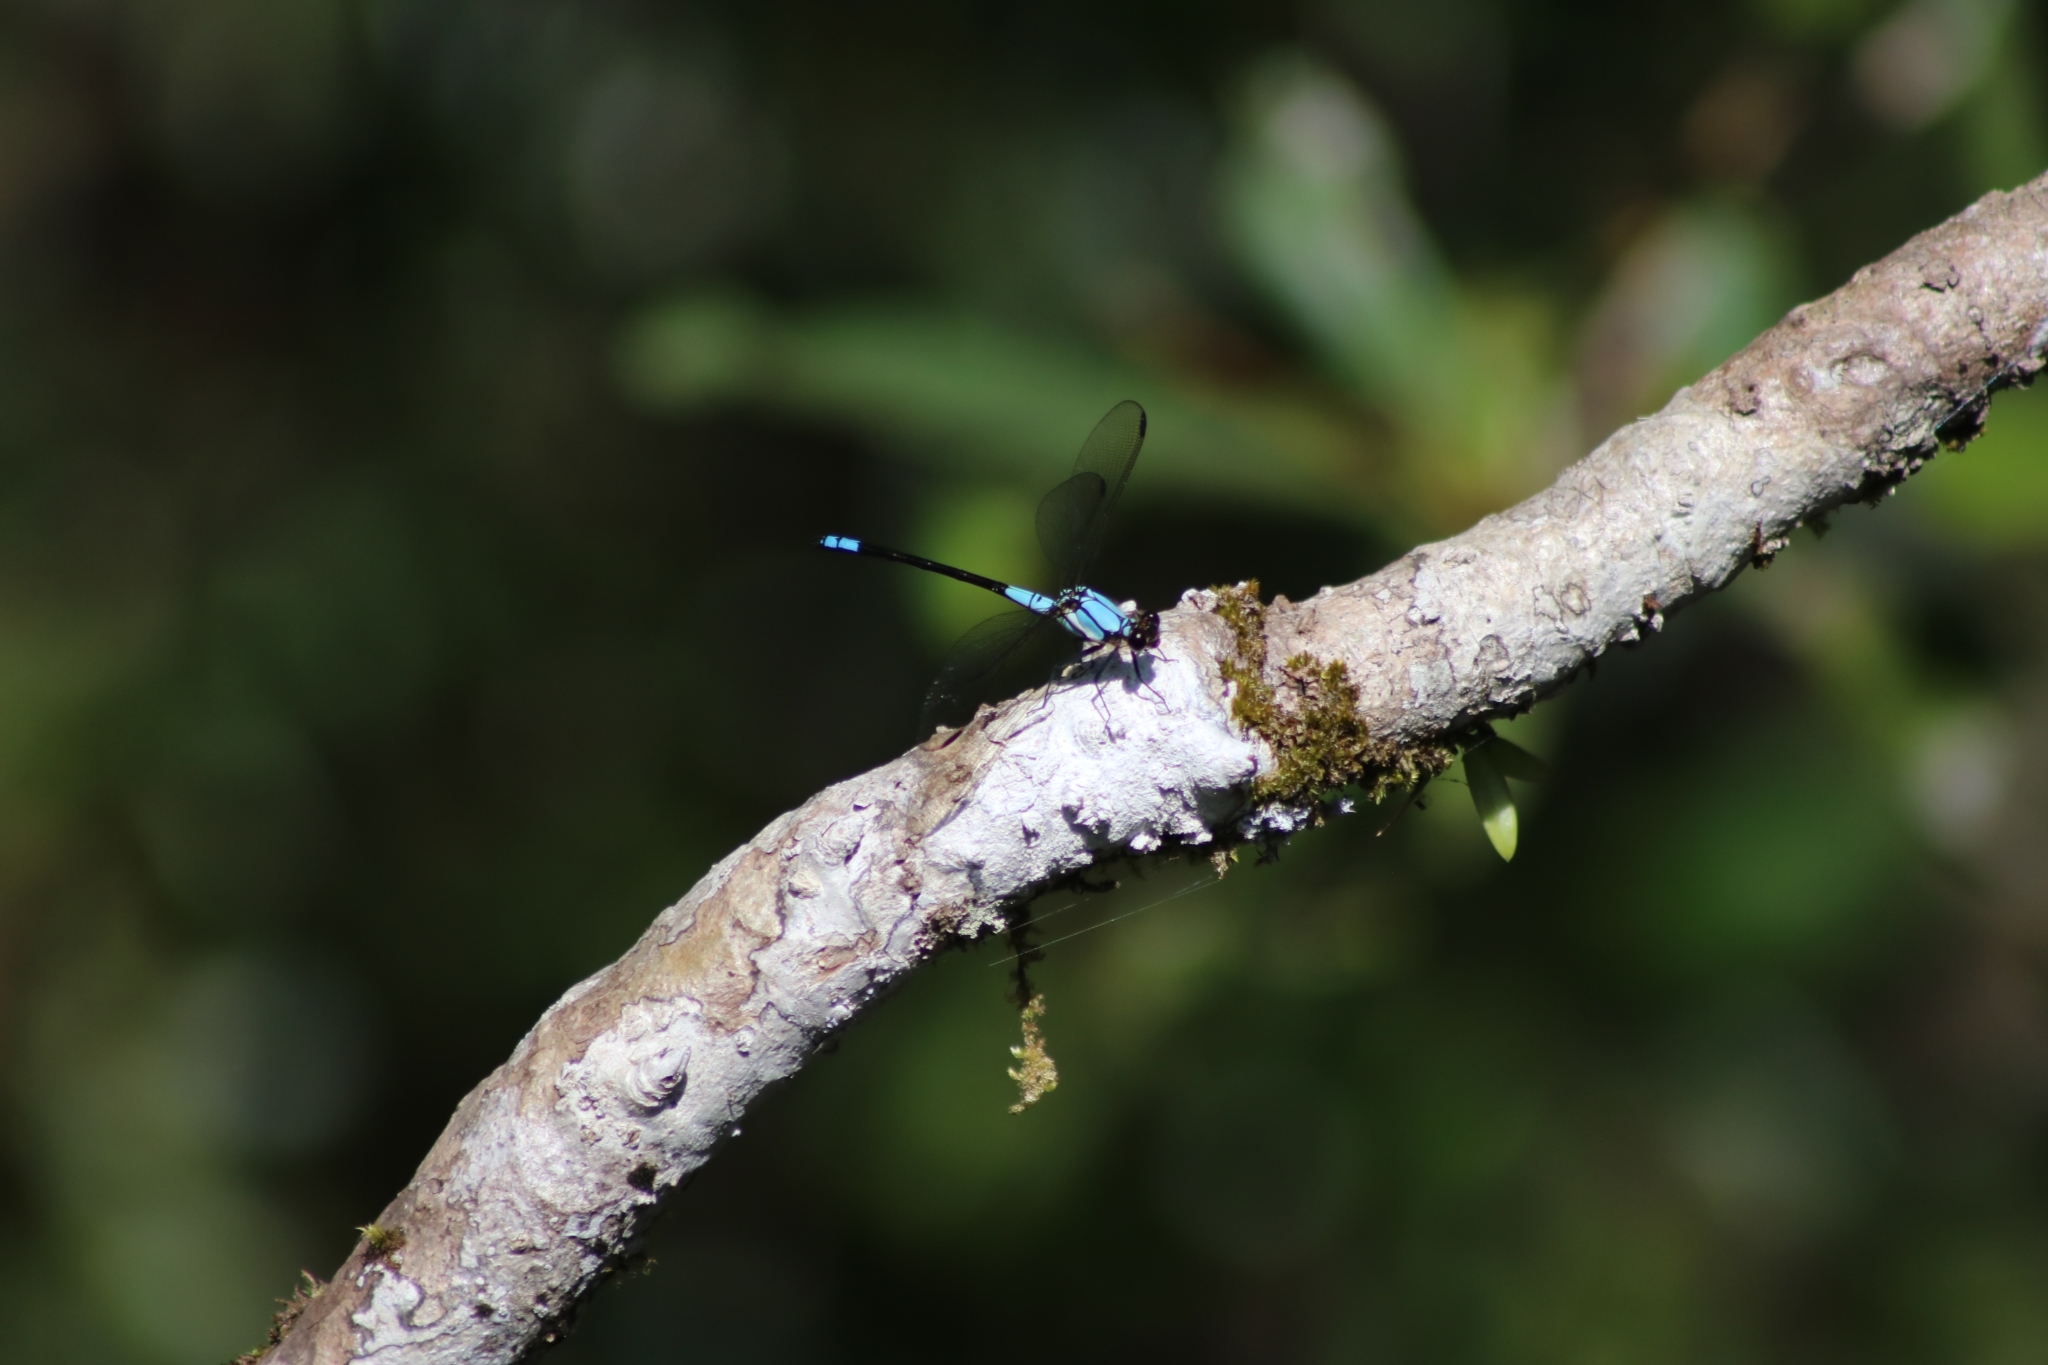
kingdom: Animalia
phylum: Arthropoda
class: Insecta
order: Odonata
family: Lestoideidae
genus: Diphlebia
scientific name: Diphlebia euphoeoides
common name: Tropical rockmaster
